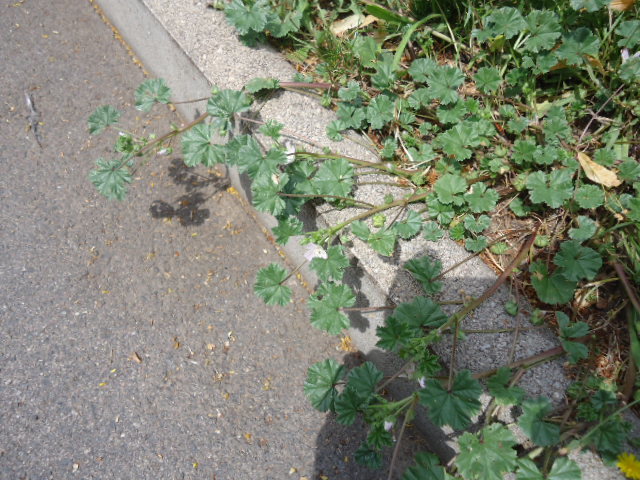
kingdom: Plantae
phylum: Tracheophyta
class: Magnoliopsida
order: Malvales
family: Malvaceae
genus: Malva
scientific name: Malva neglecta
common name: Common mallow
